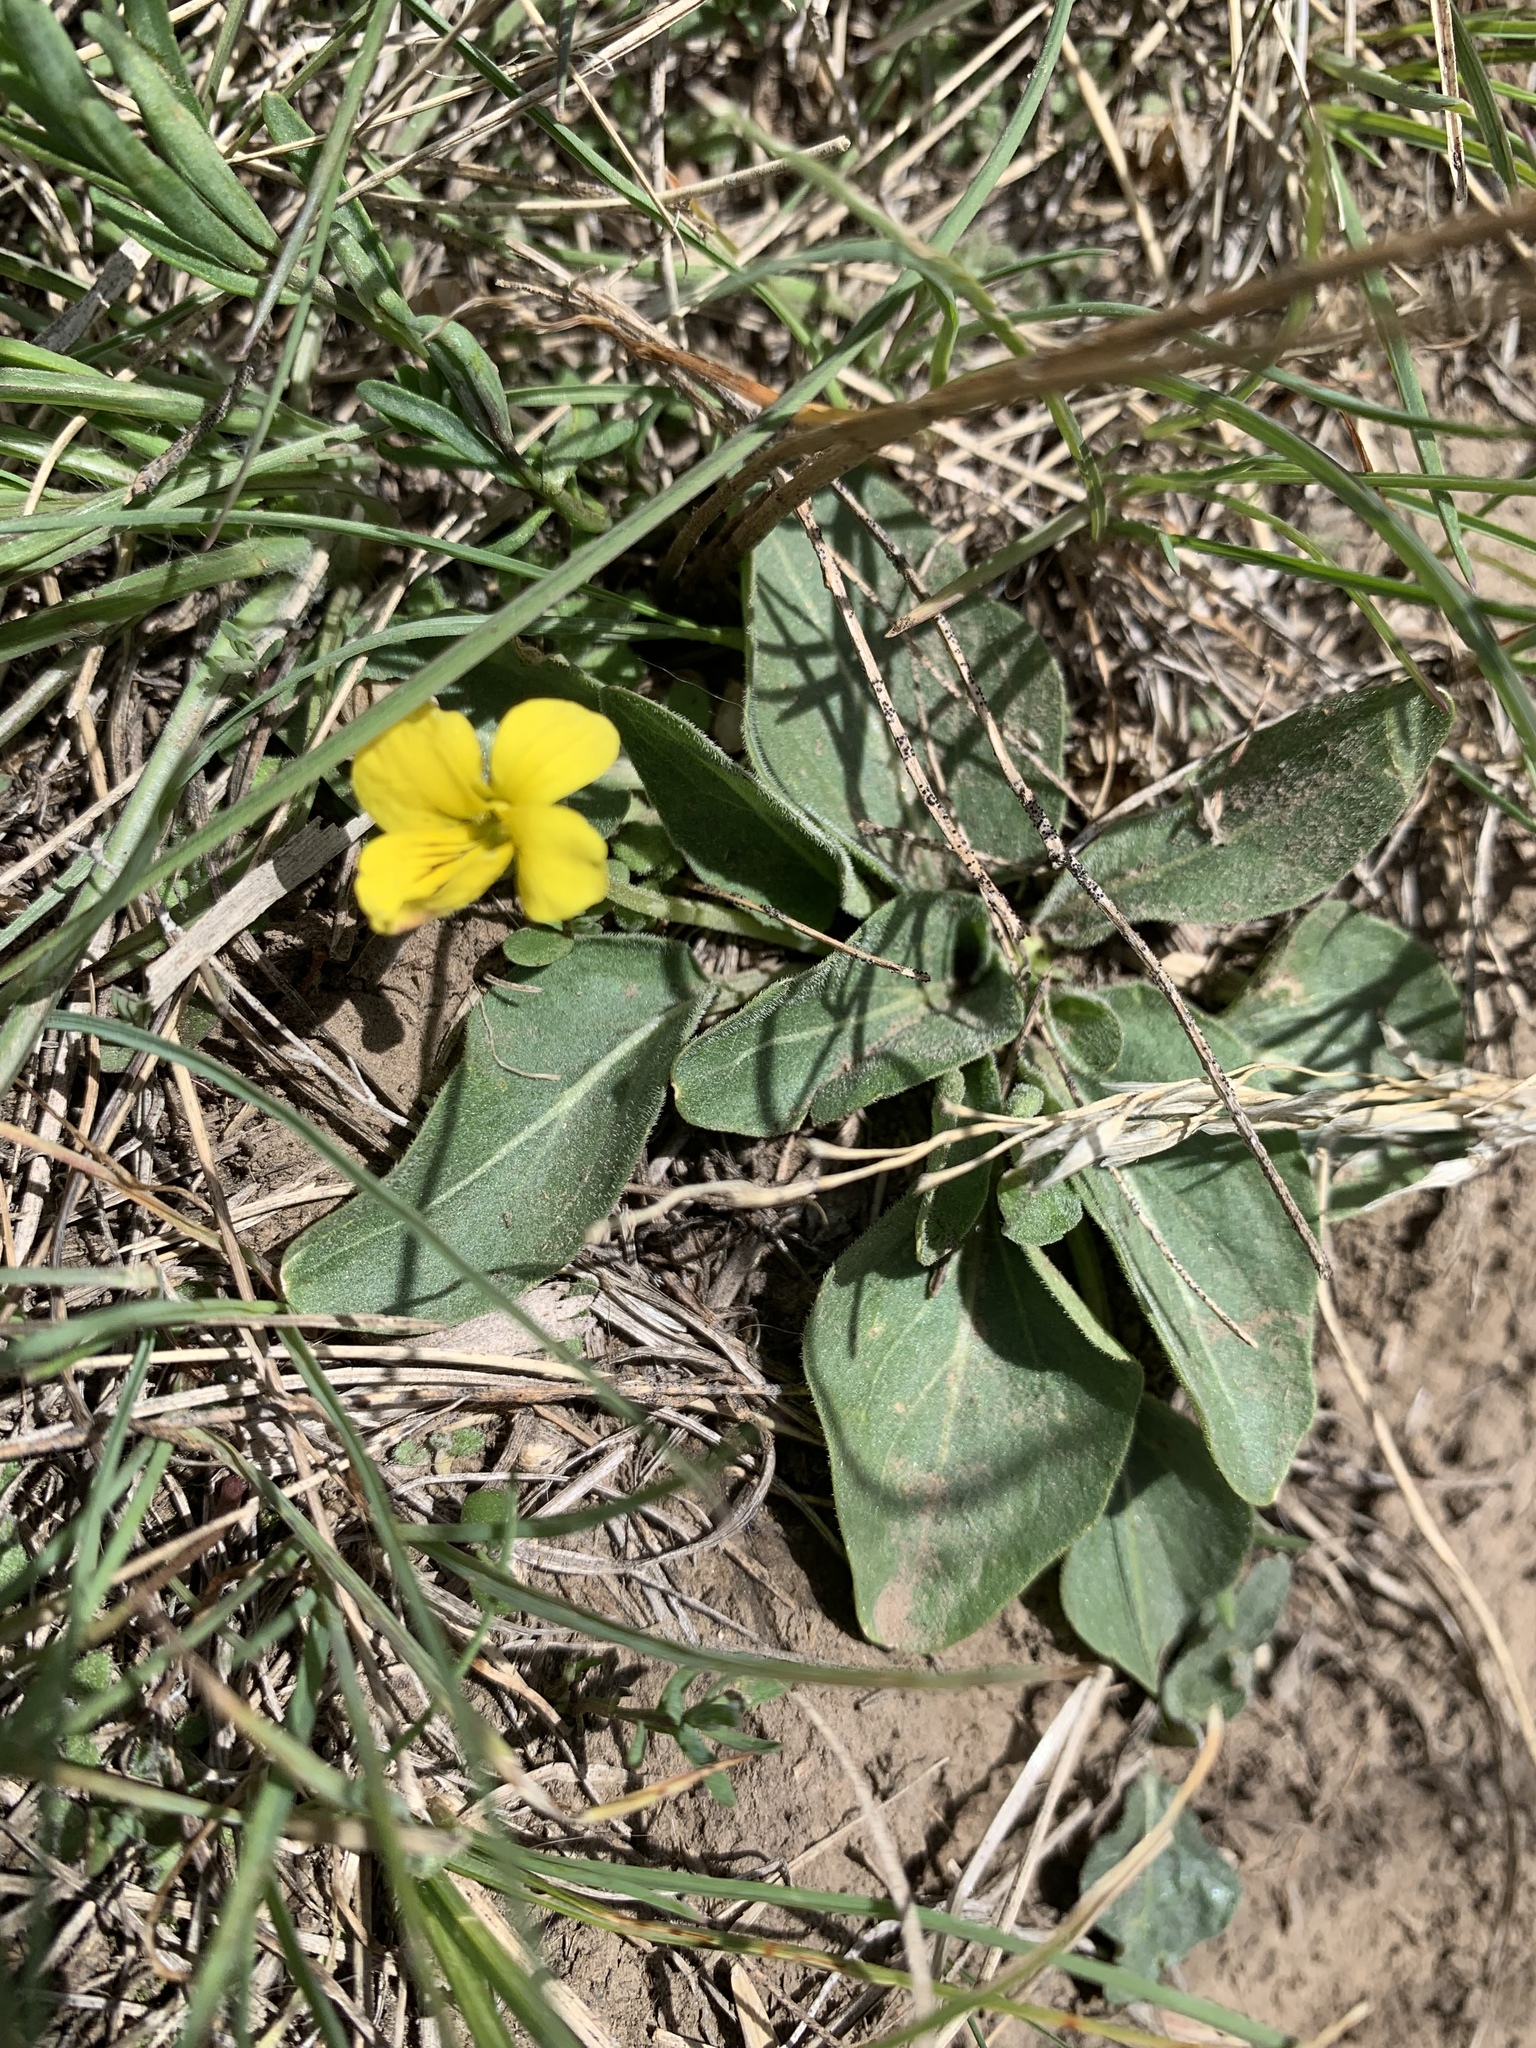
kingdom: Plantae
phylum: Tracheophyta
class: Magnoliopsida
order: Malpighiales
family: Violaceae
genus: Viola
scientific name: Viola vallicola
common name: Valley violet
